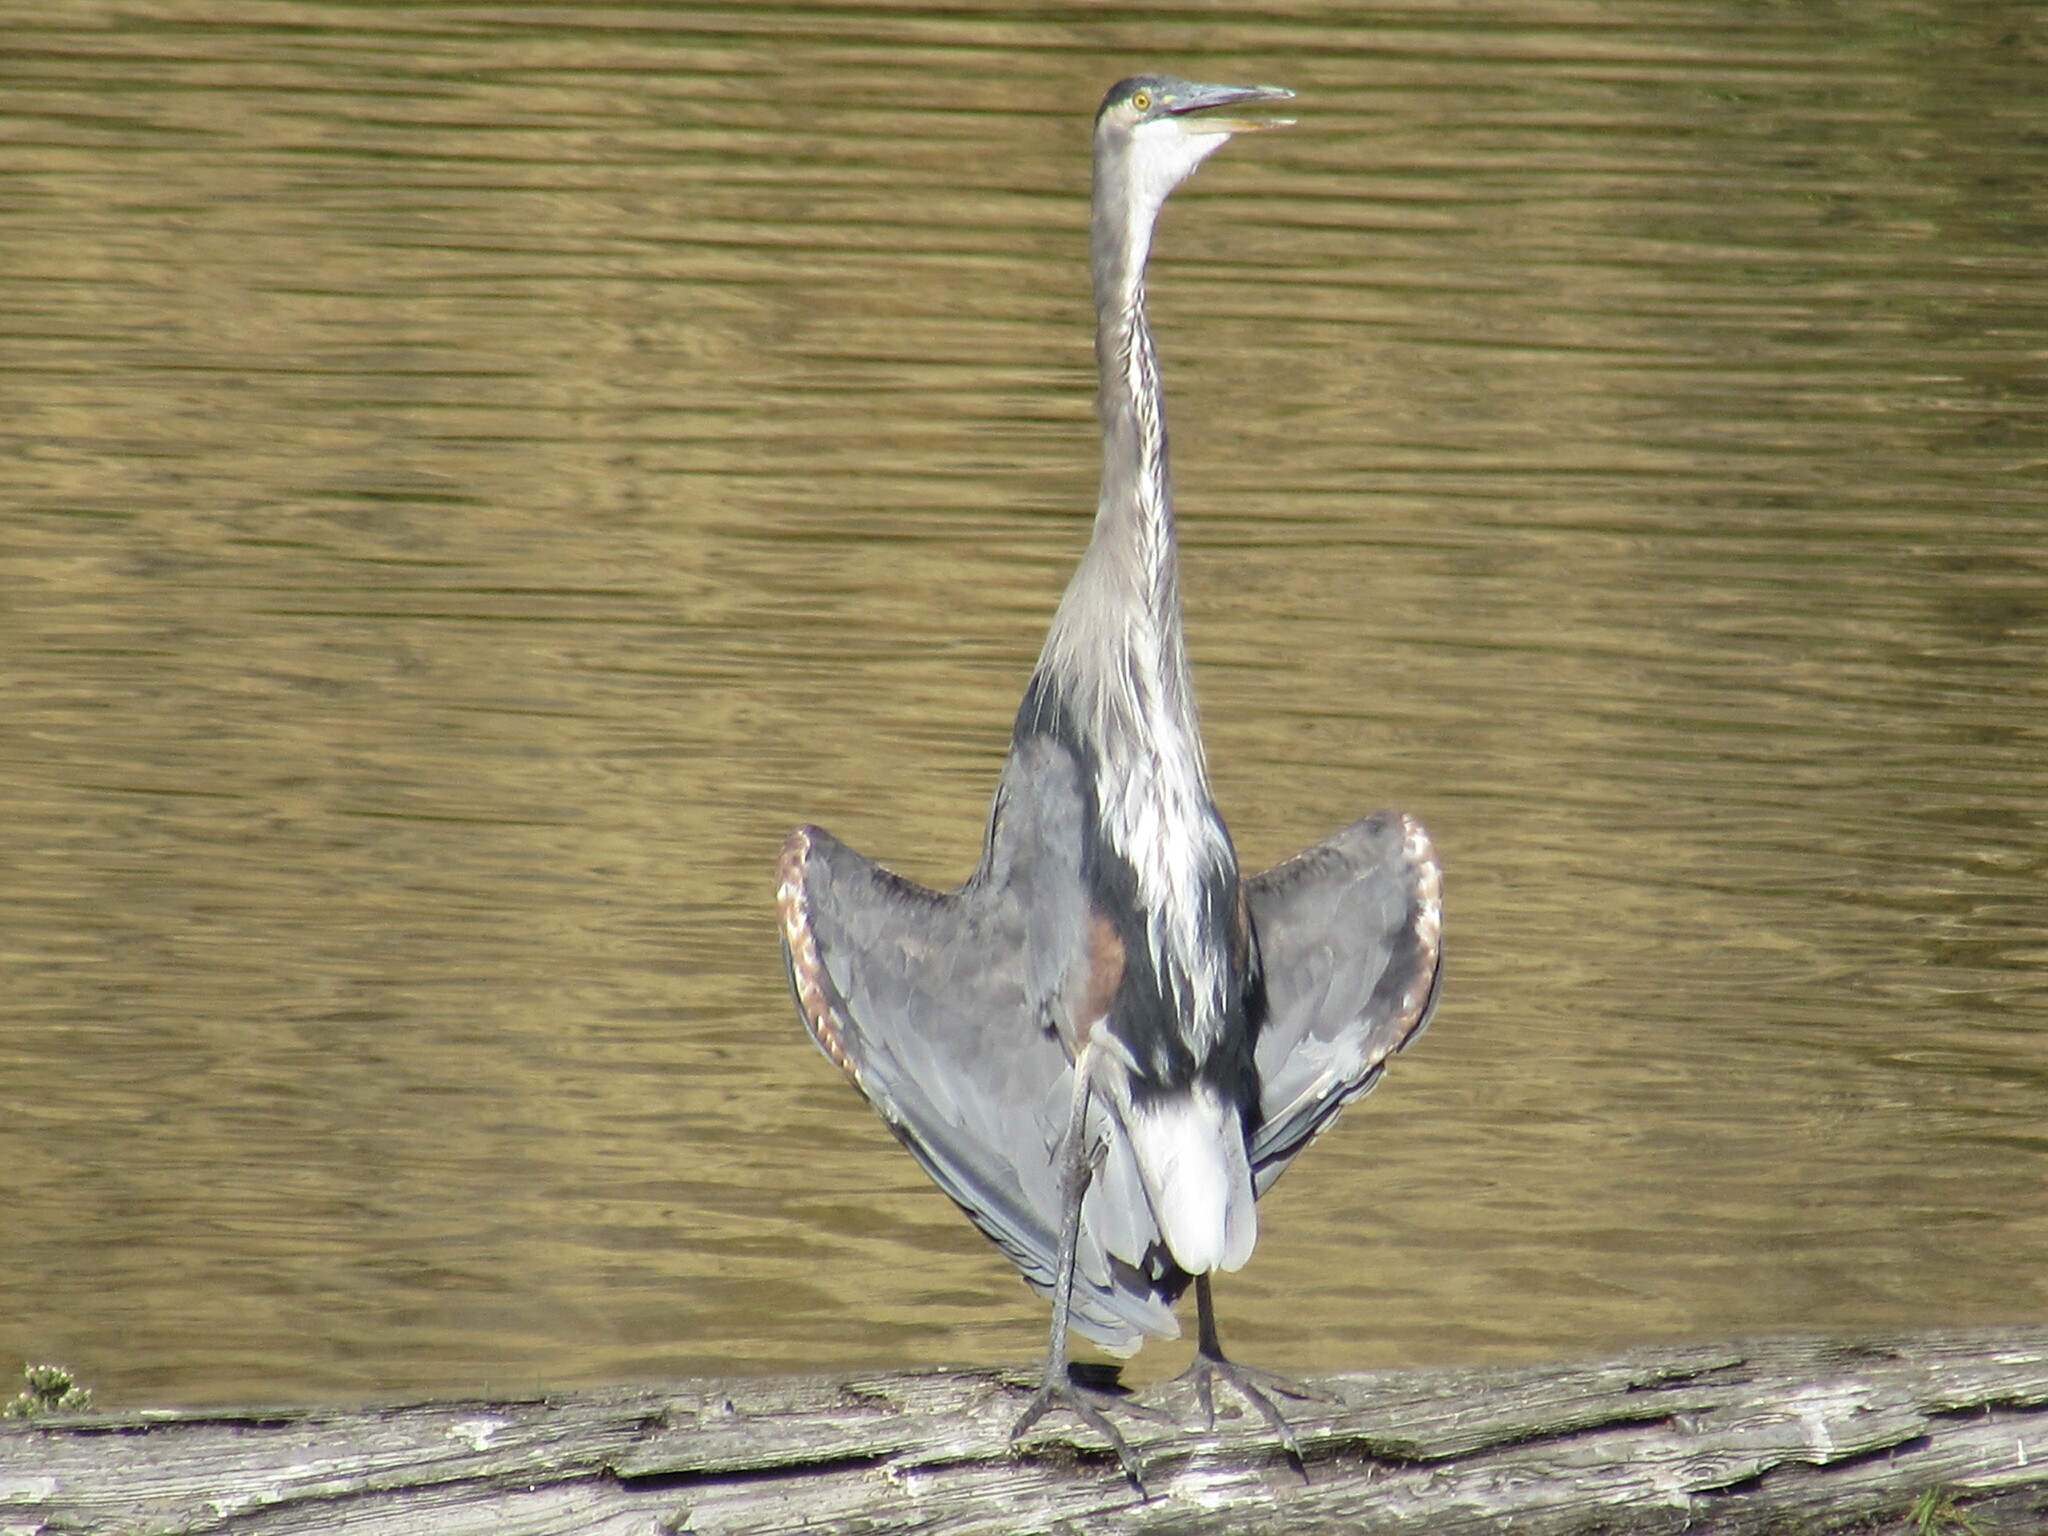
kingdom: Animalia
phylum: Chordata
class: Aves
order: Pelecaniformes
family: Ardeidae
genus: Ardea
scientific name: Ardea herodias
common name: Great blue heron
